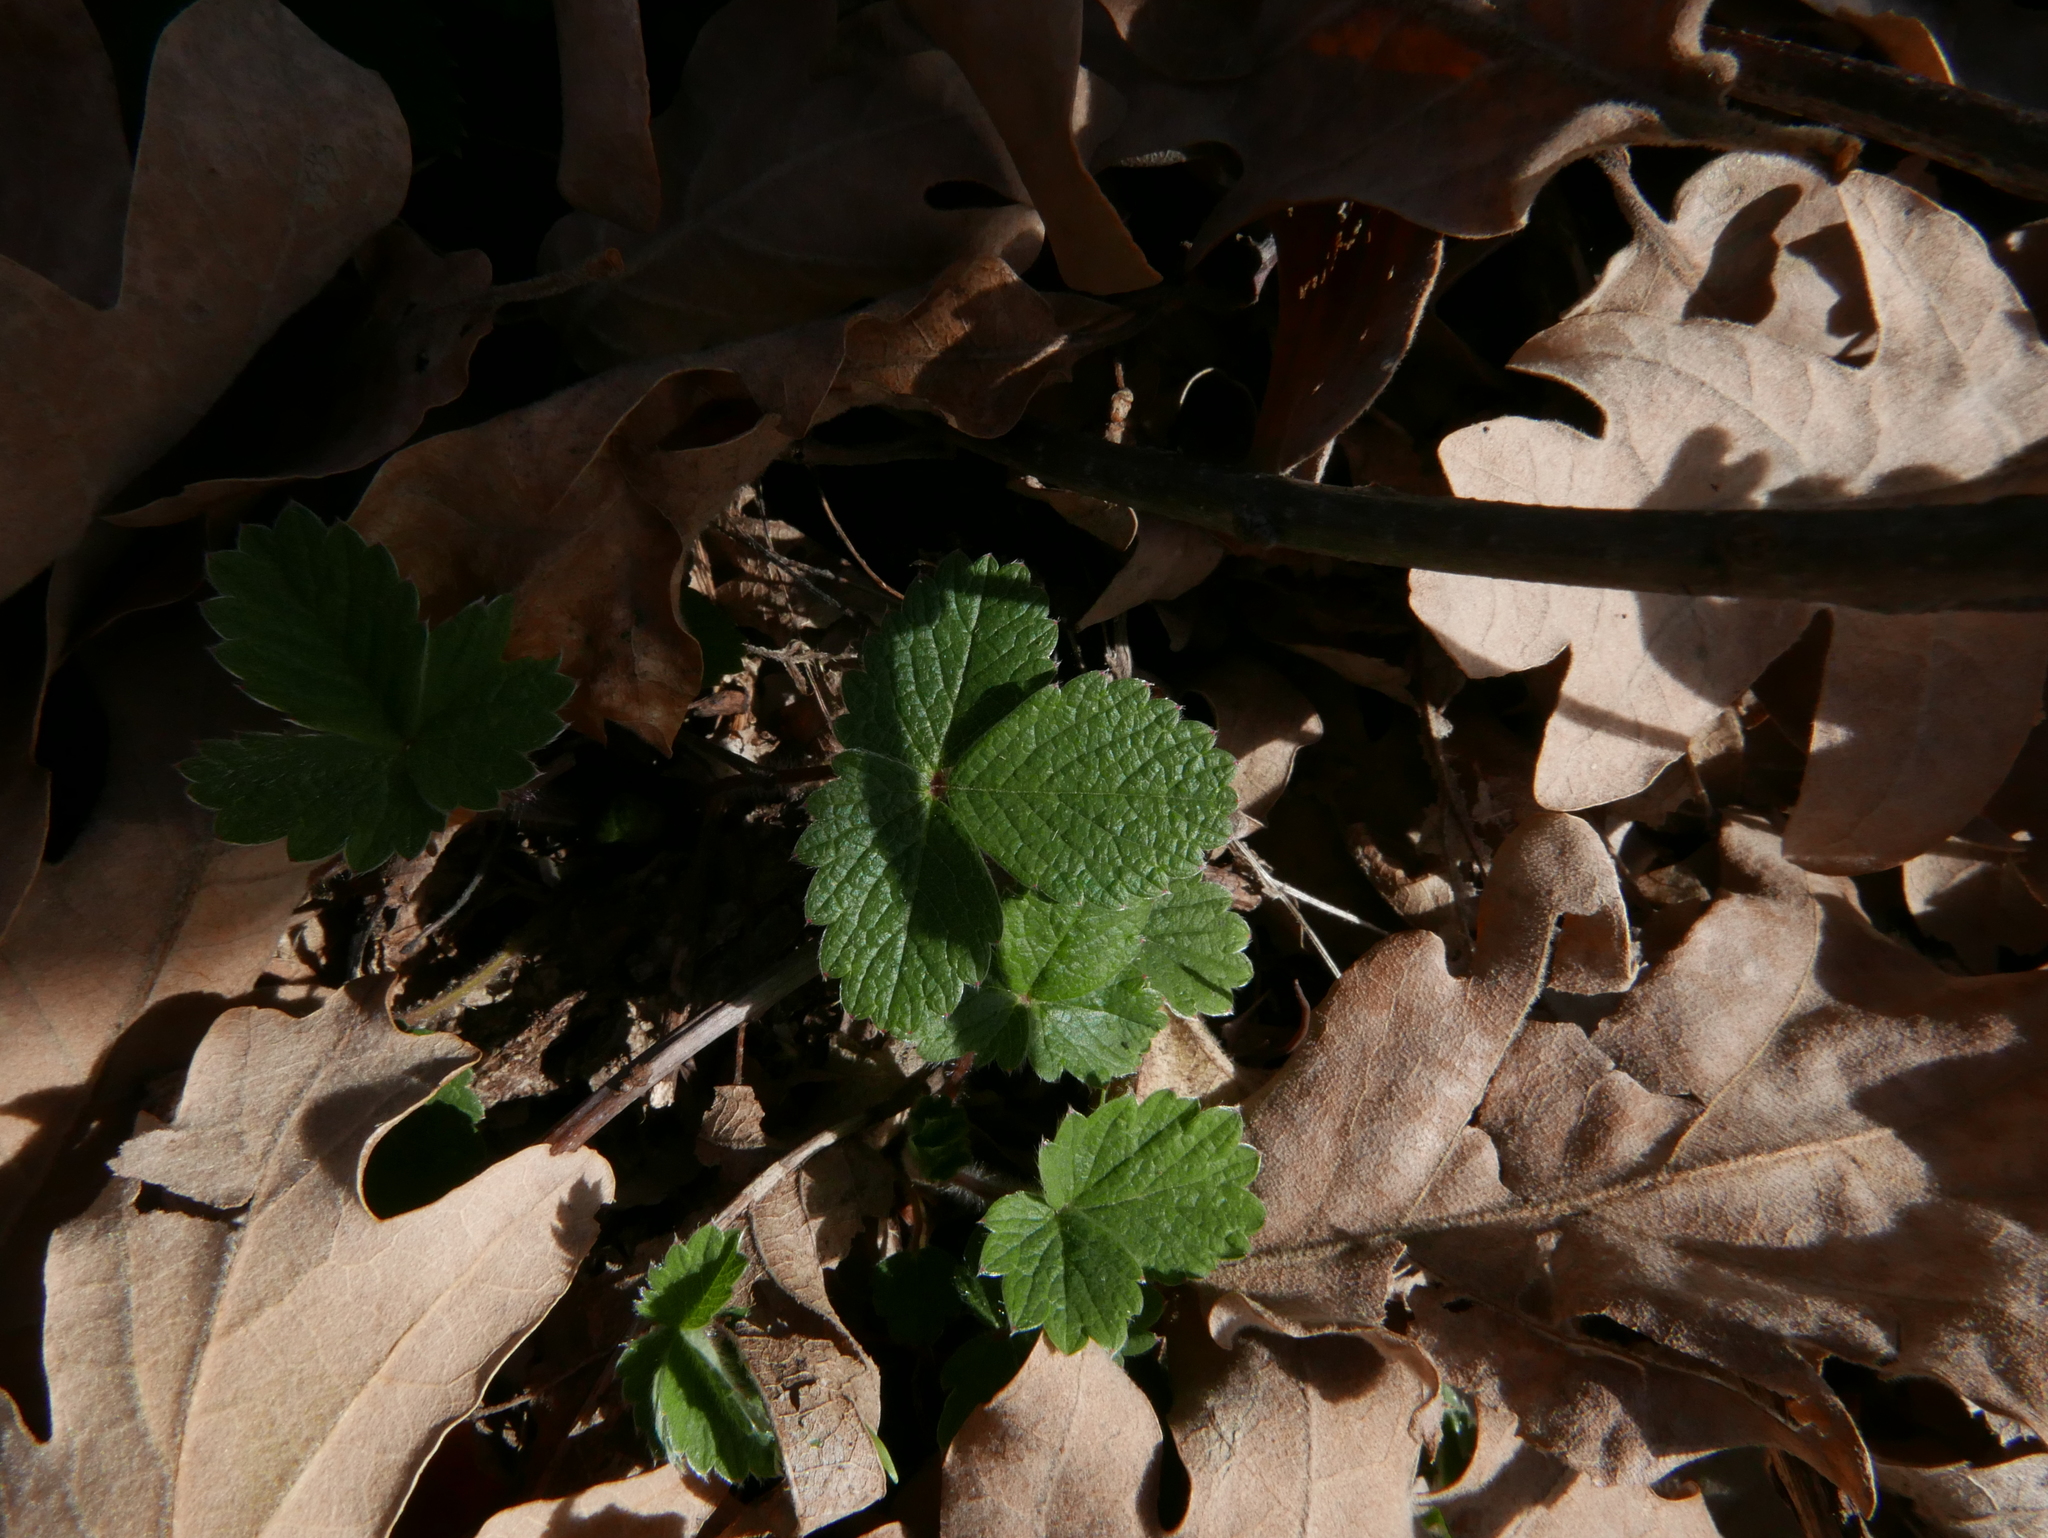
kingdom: Plantae
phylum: Tracheophyta
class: Magnoliopsida
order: Rosales
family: Rosaceae
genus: Fragaria
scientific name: Fragaria vesca
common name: Wild strawberry
